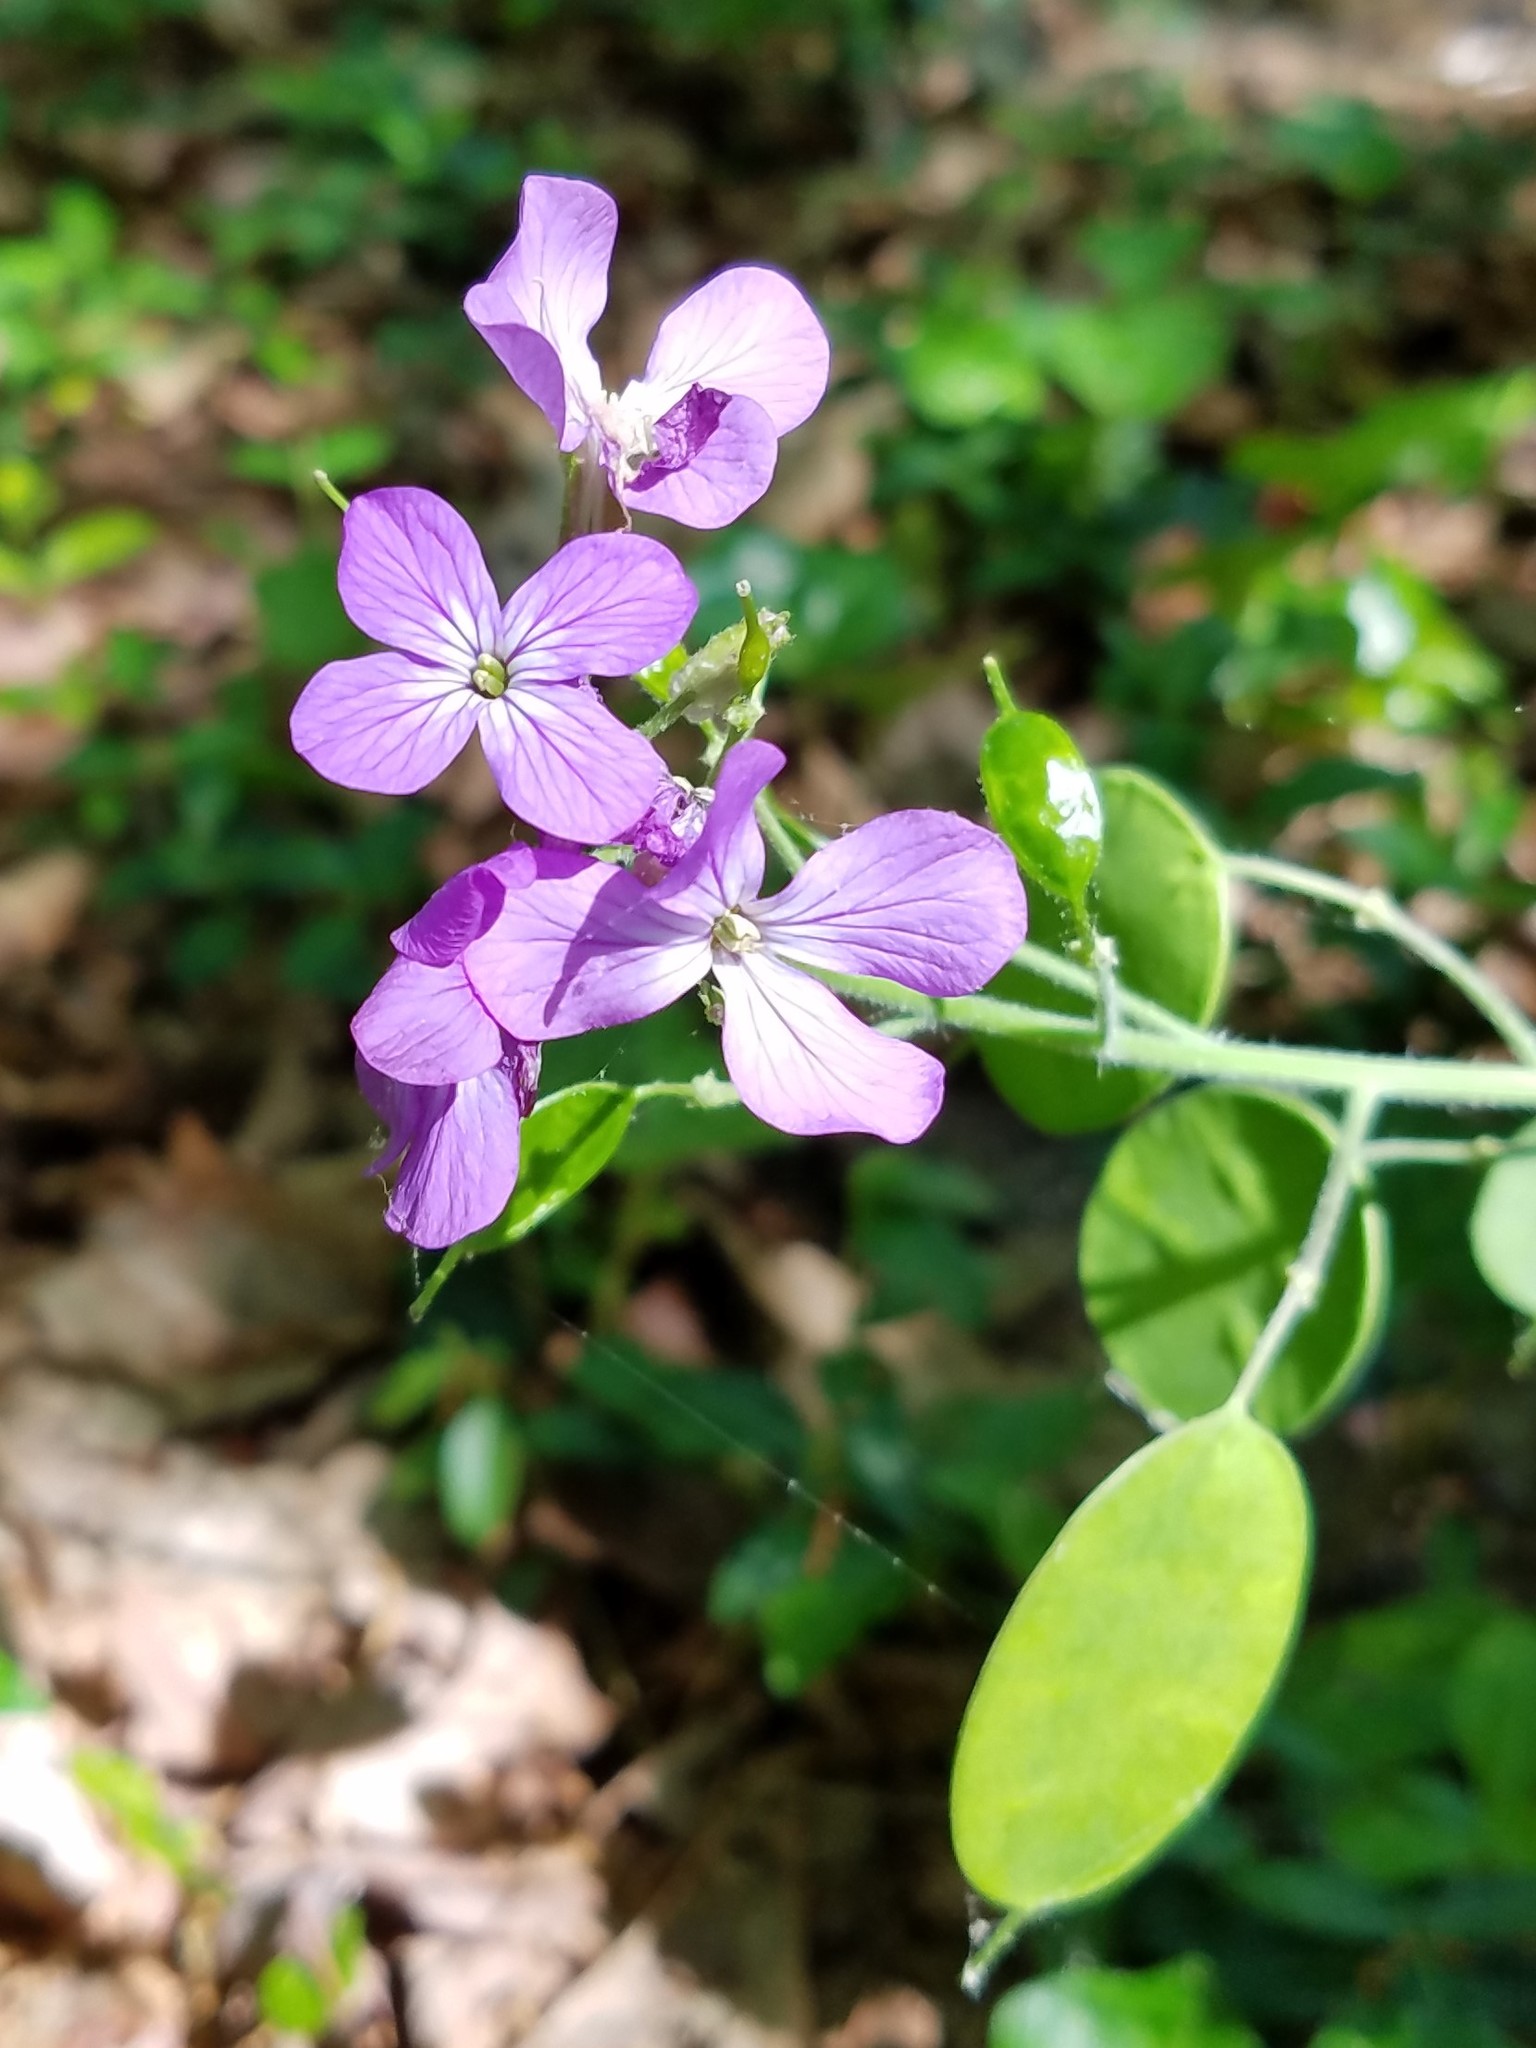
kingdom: Plantae
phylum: Tracheophyta
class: Magnoliopsida
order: Brassicales
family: Brassicaceae
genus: Lunaria
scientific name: Lunaria annua
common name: Honesty
